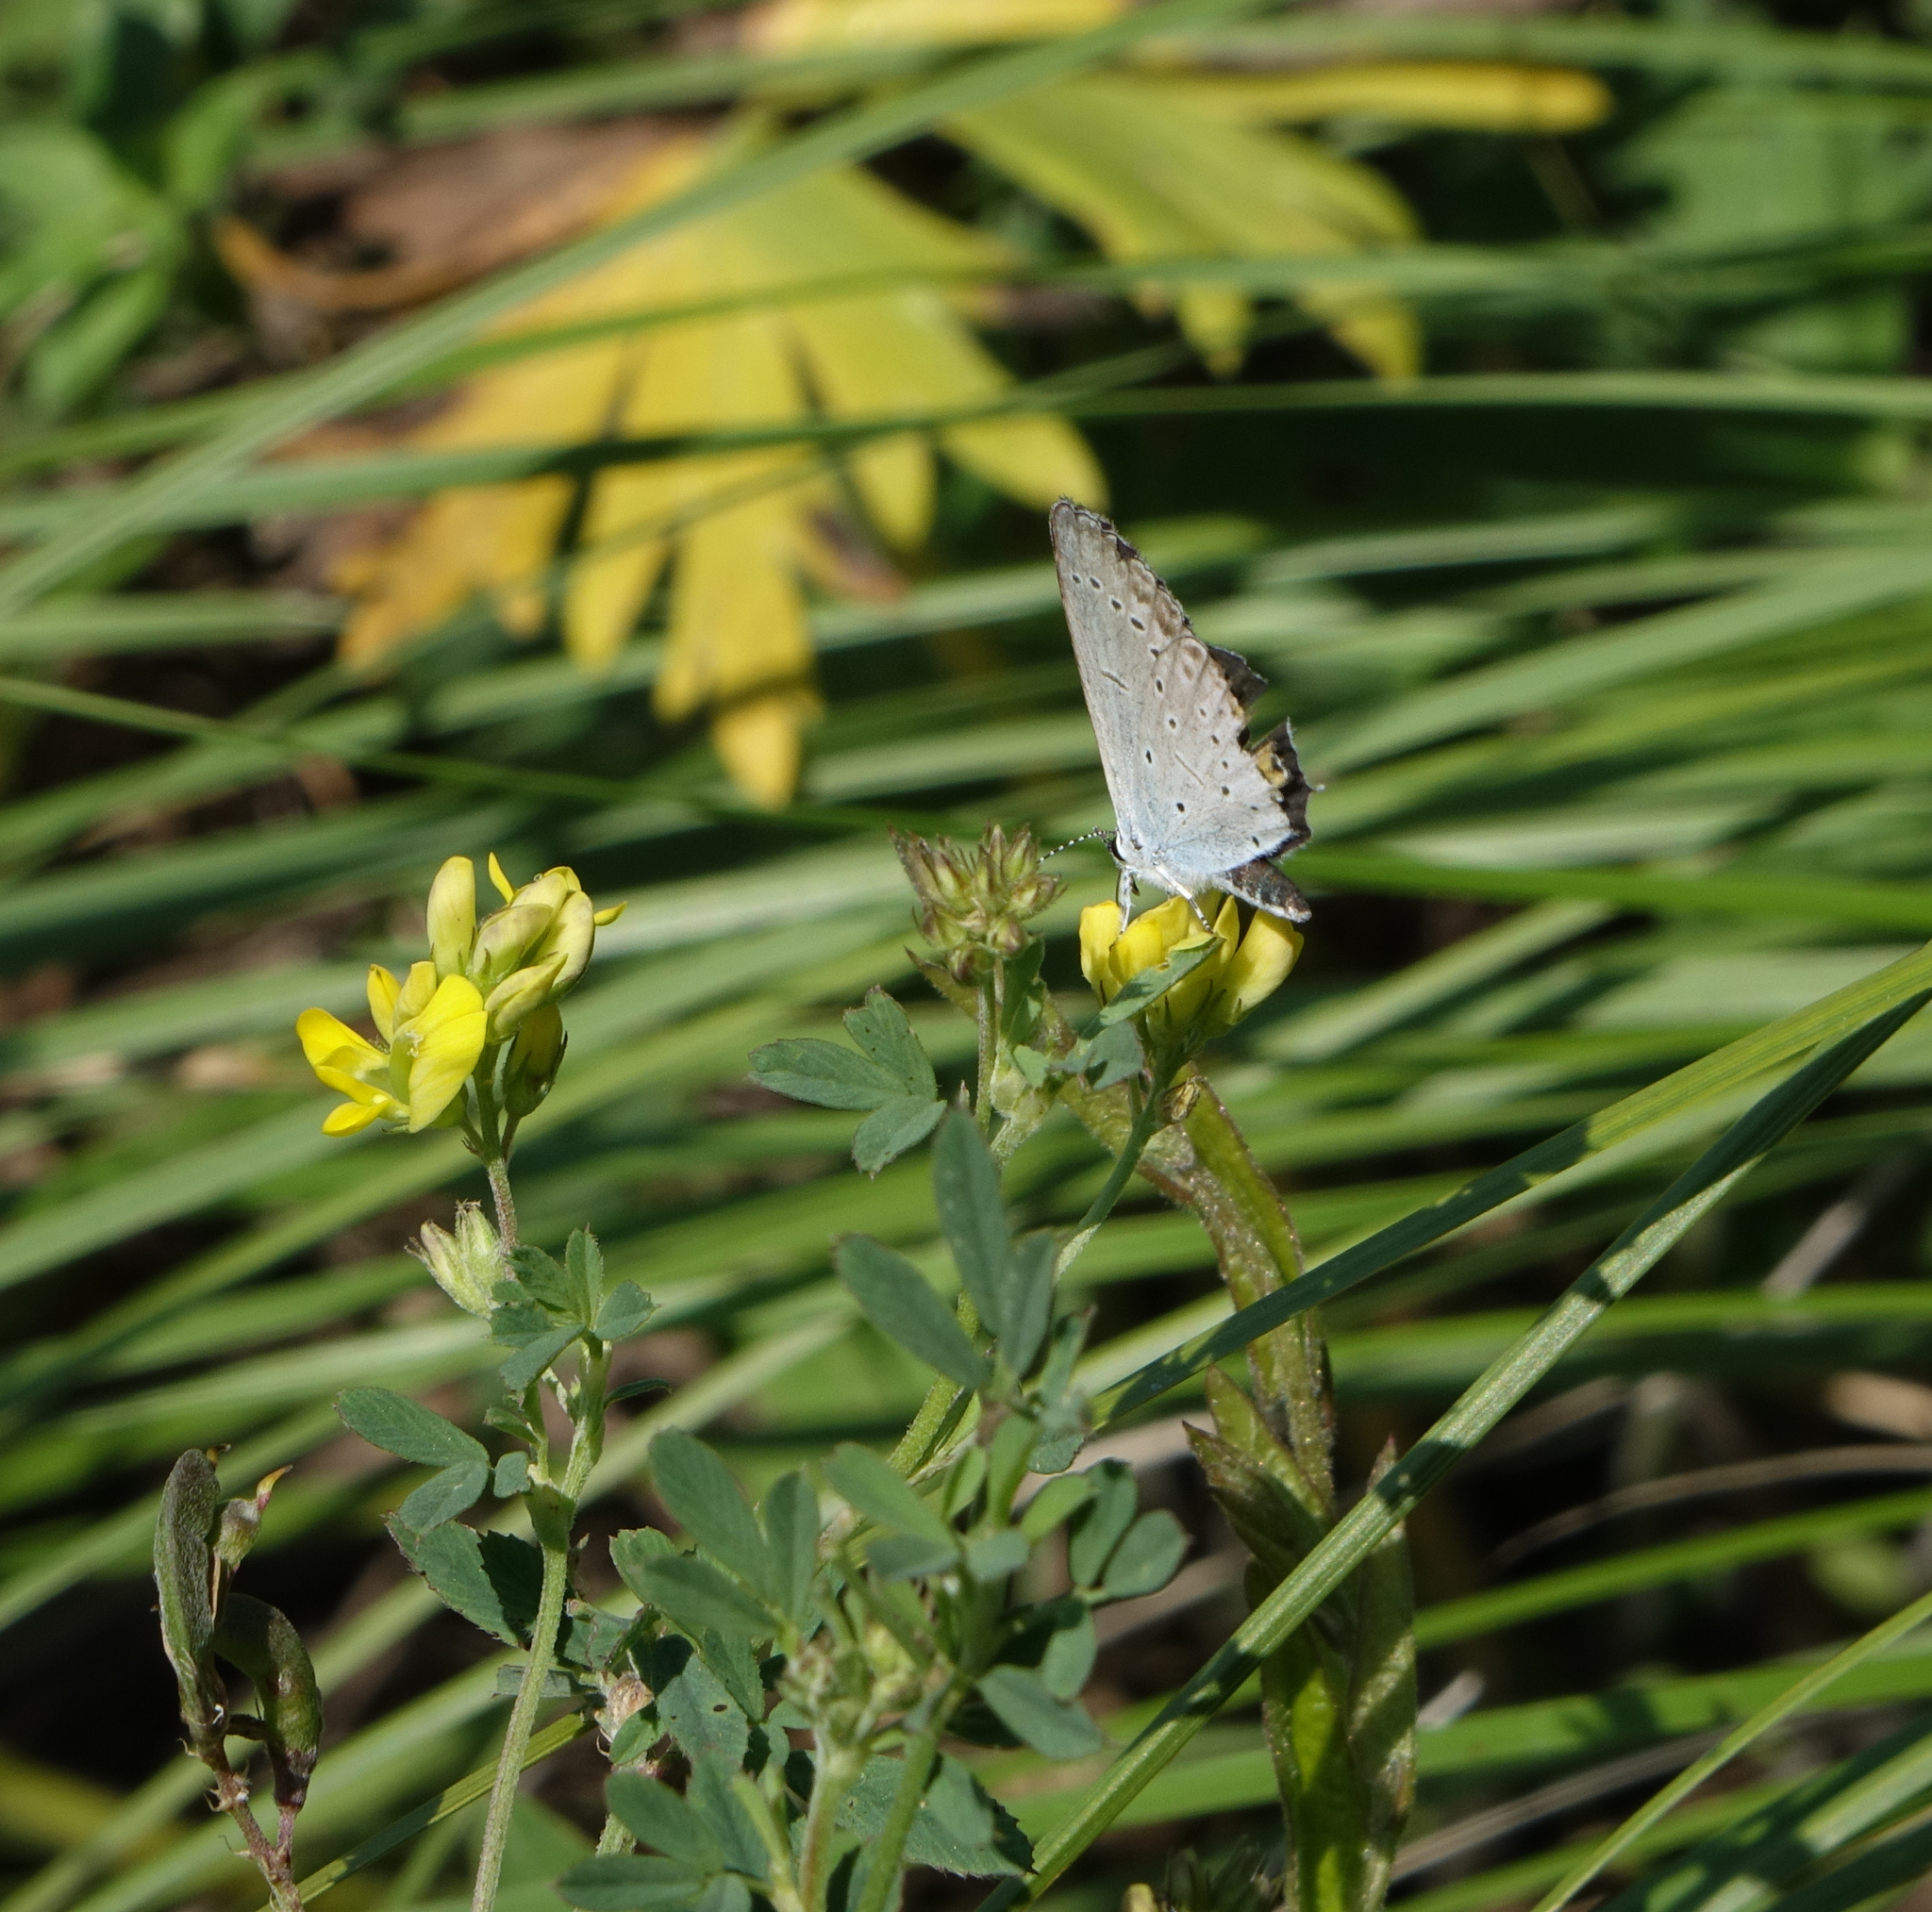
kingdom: Plantae
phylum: Tracheophyta
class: Magnoliopsida
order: Fabales
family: Fabaceae
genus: Medicago
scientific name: Medicago falcata
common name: Sickle medick
